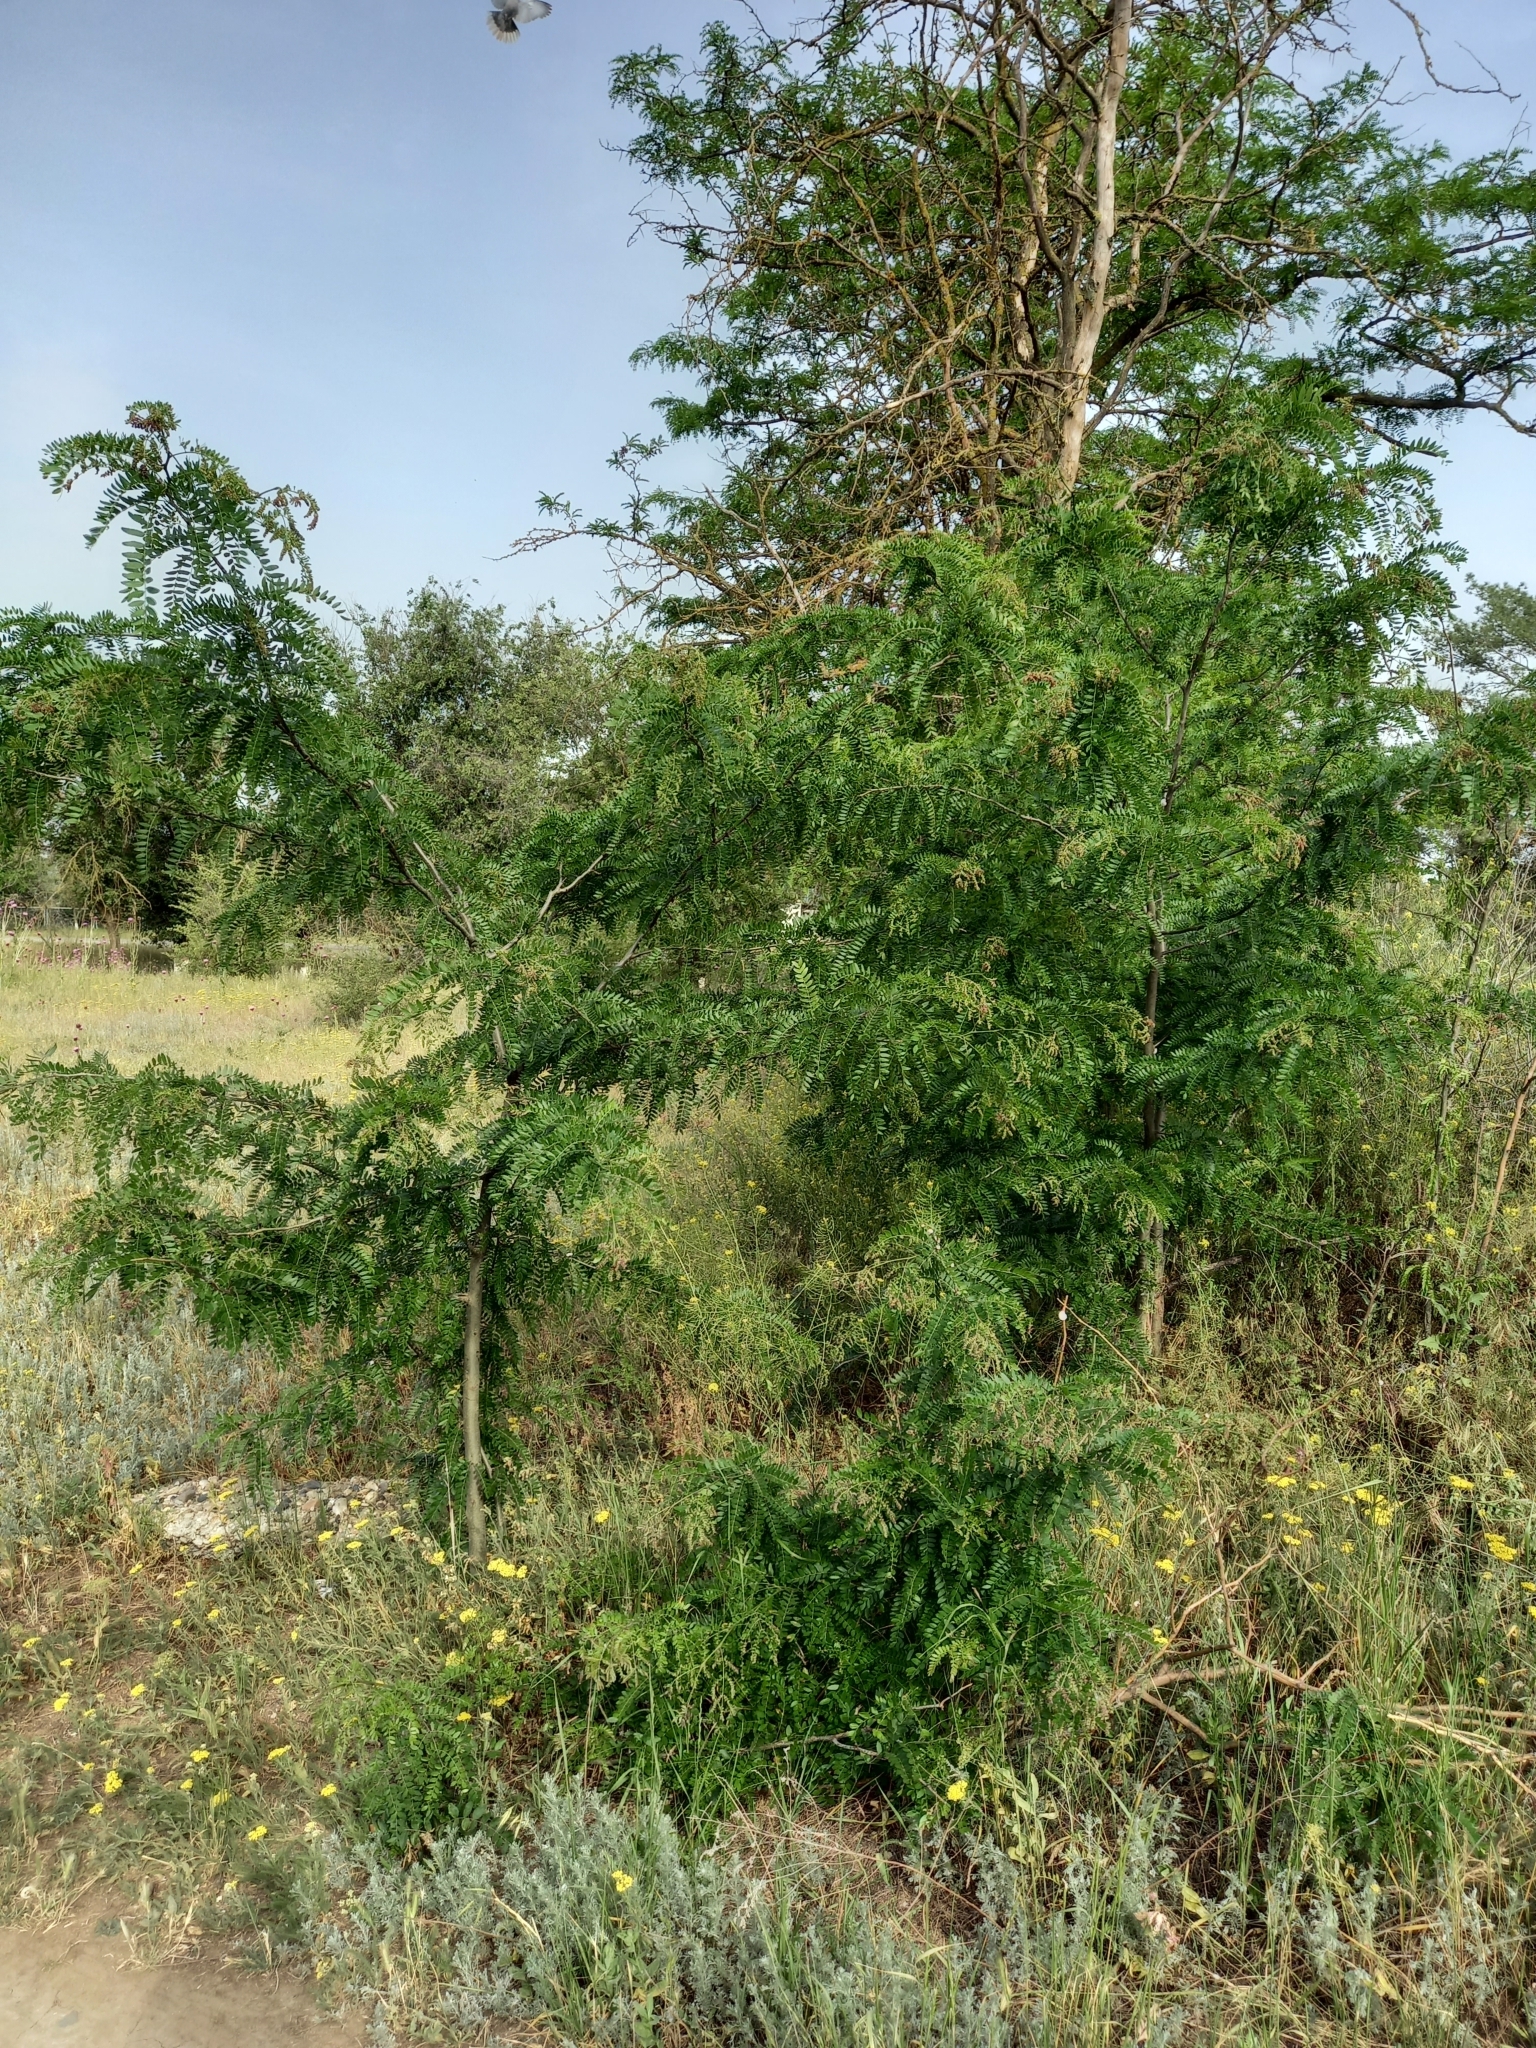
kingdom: Plantae
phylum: Tracheophyta
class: Magnoliopsida
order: Fabales
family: Fabaceae
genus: Gleditsia
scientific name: Gleditsia triacanthos
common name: Common honeylocust
